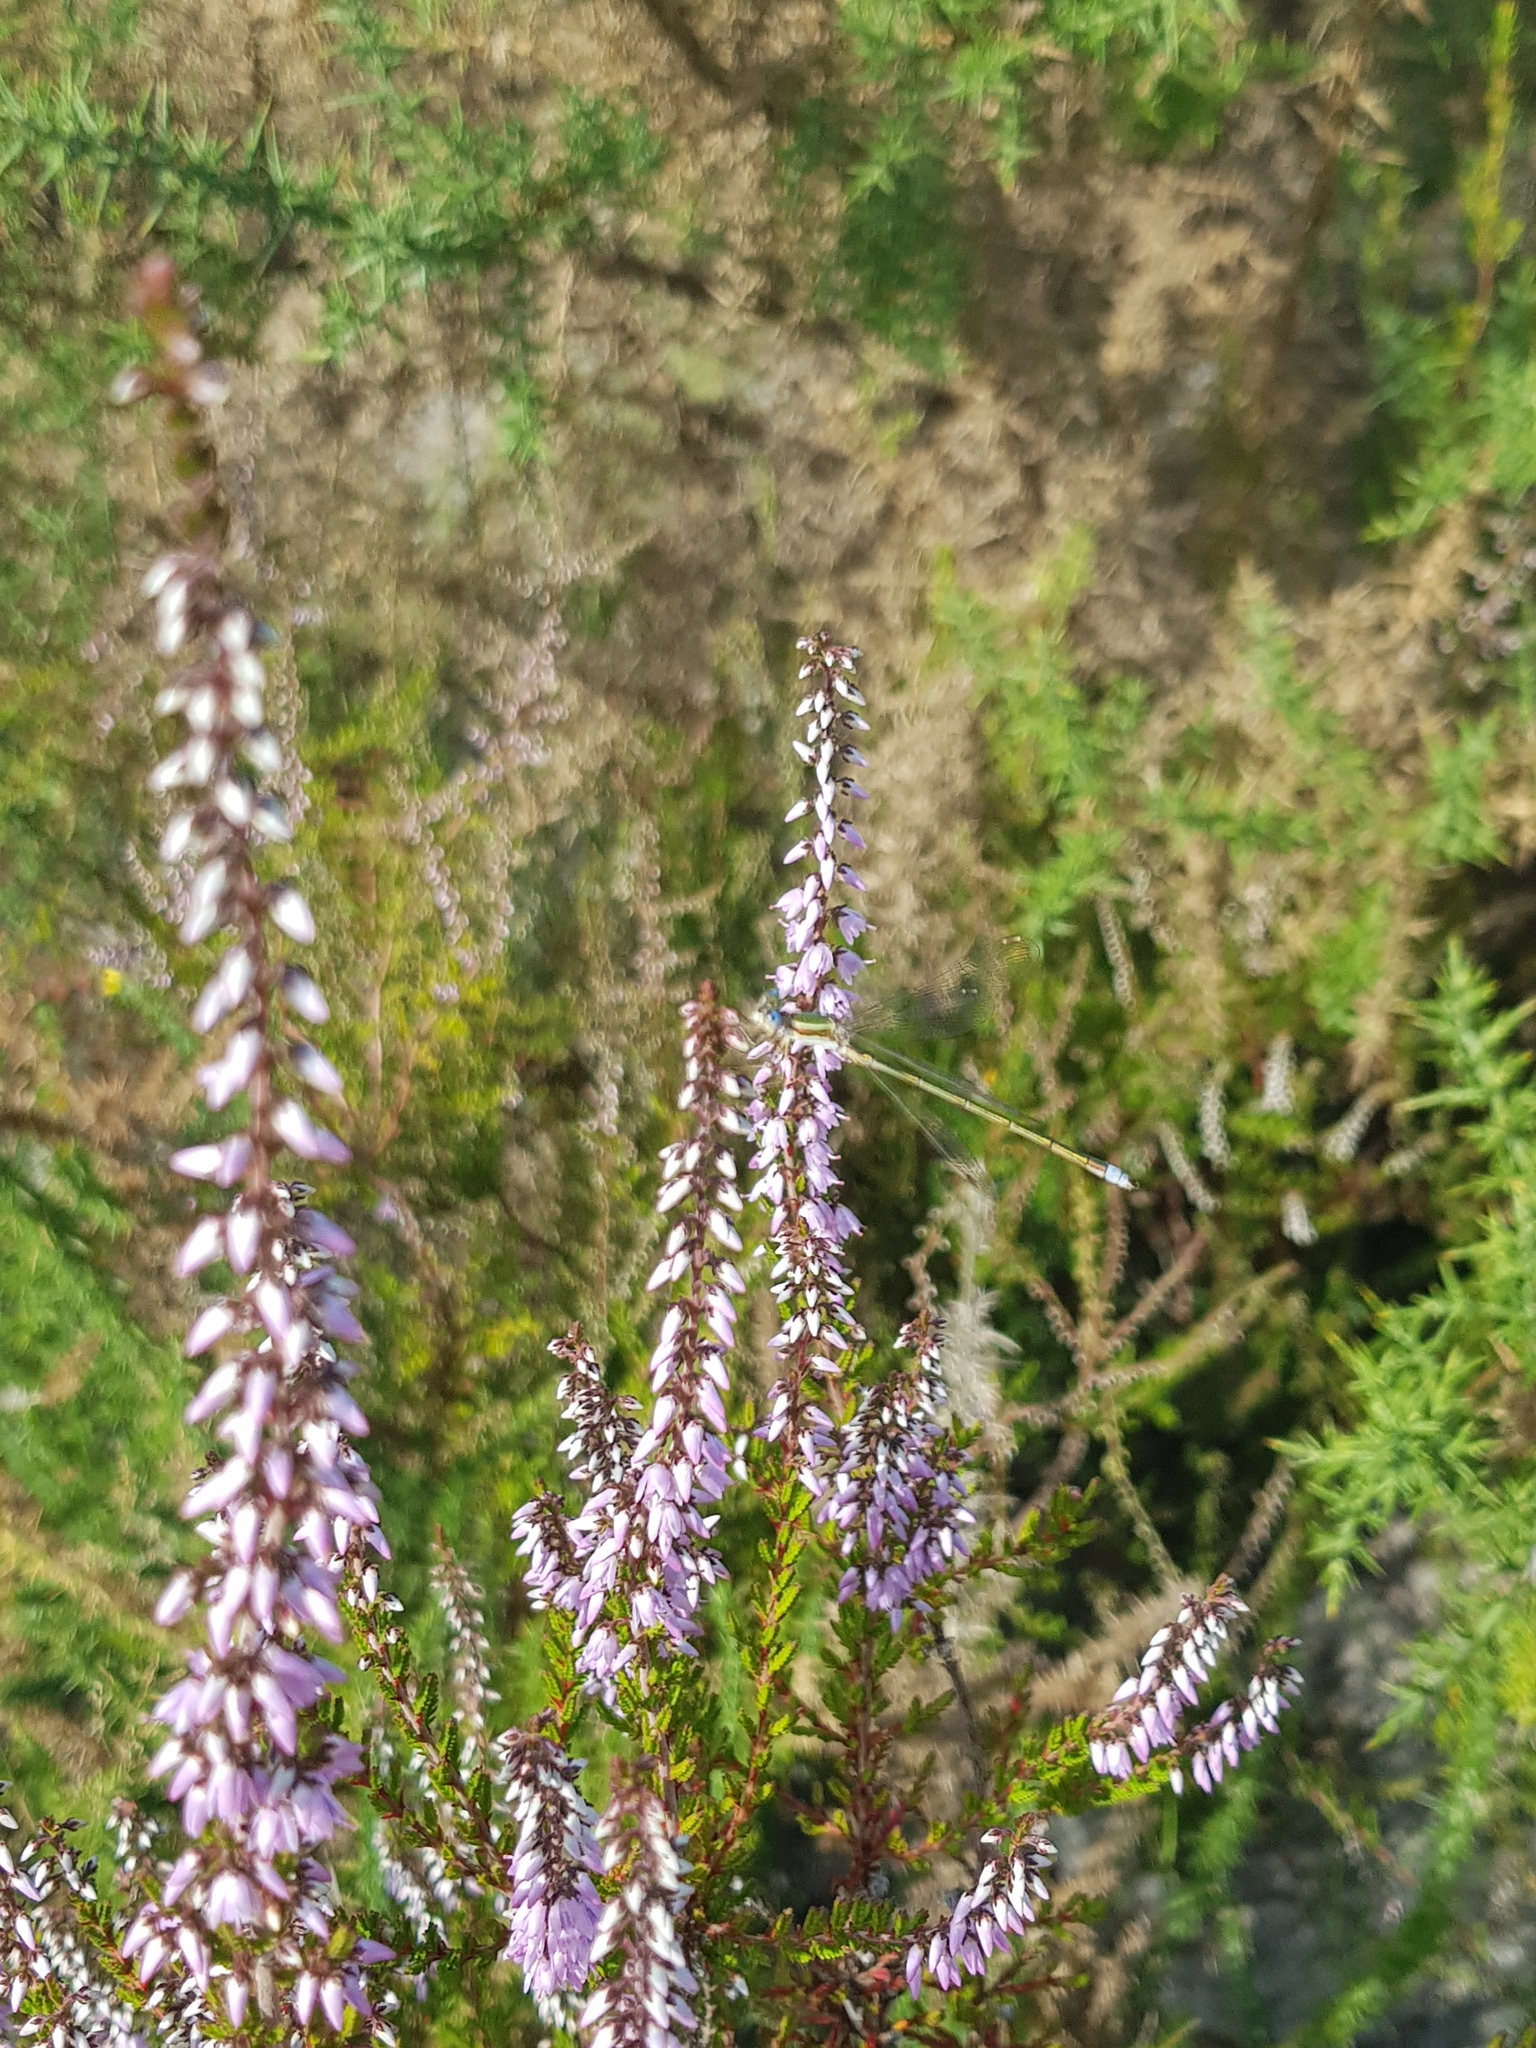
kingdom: Plantae
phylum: Tracheophyta
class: Magnoliopsida
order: Ericales
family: Ericaceae
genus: Calluna
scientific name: Calluna vulgaris
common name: Heather
